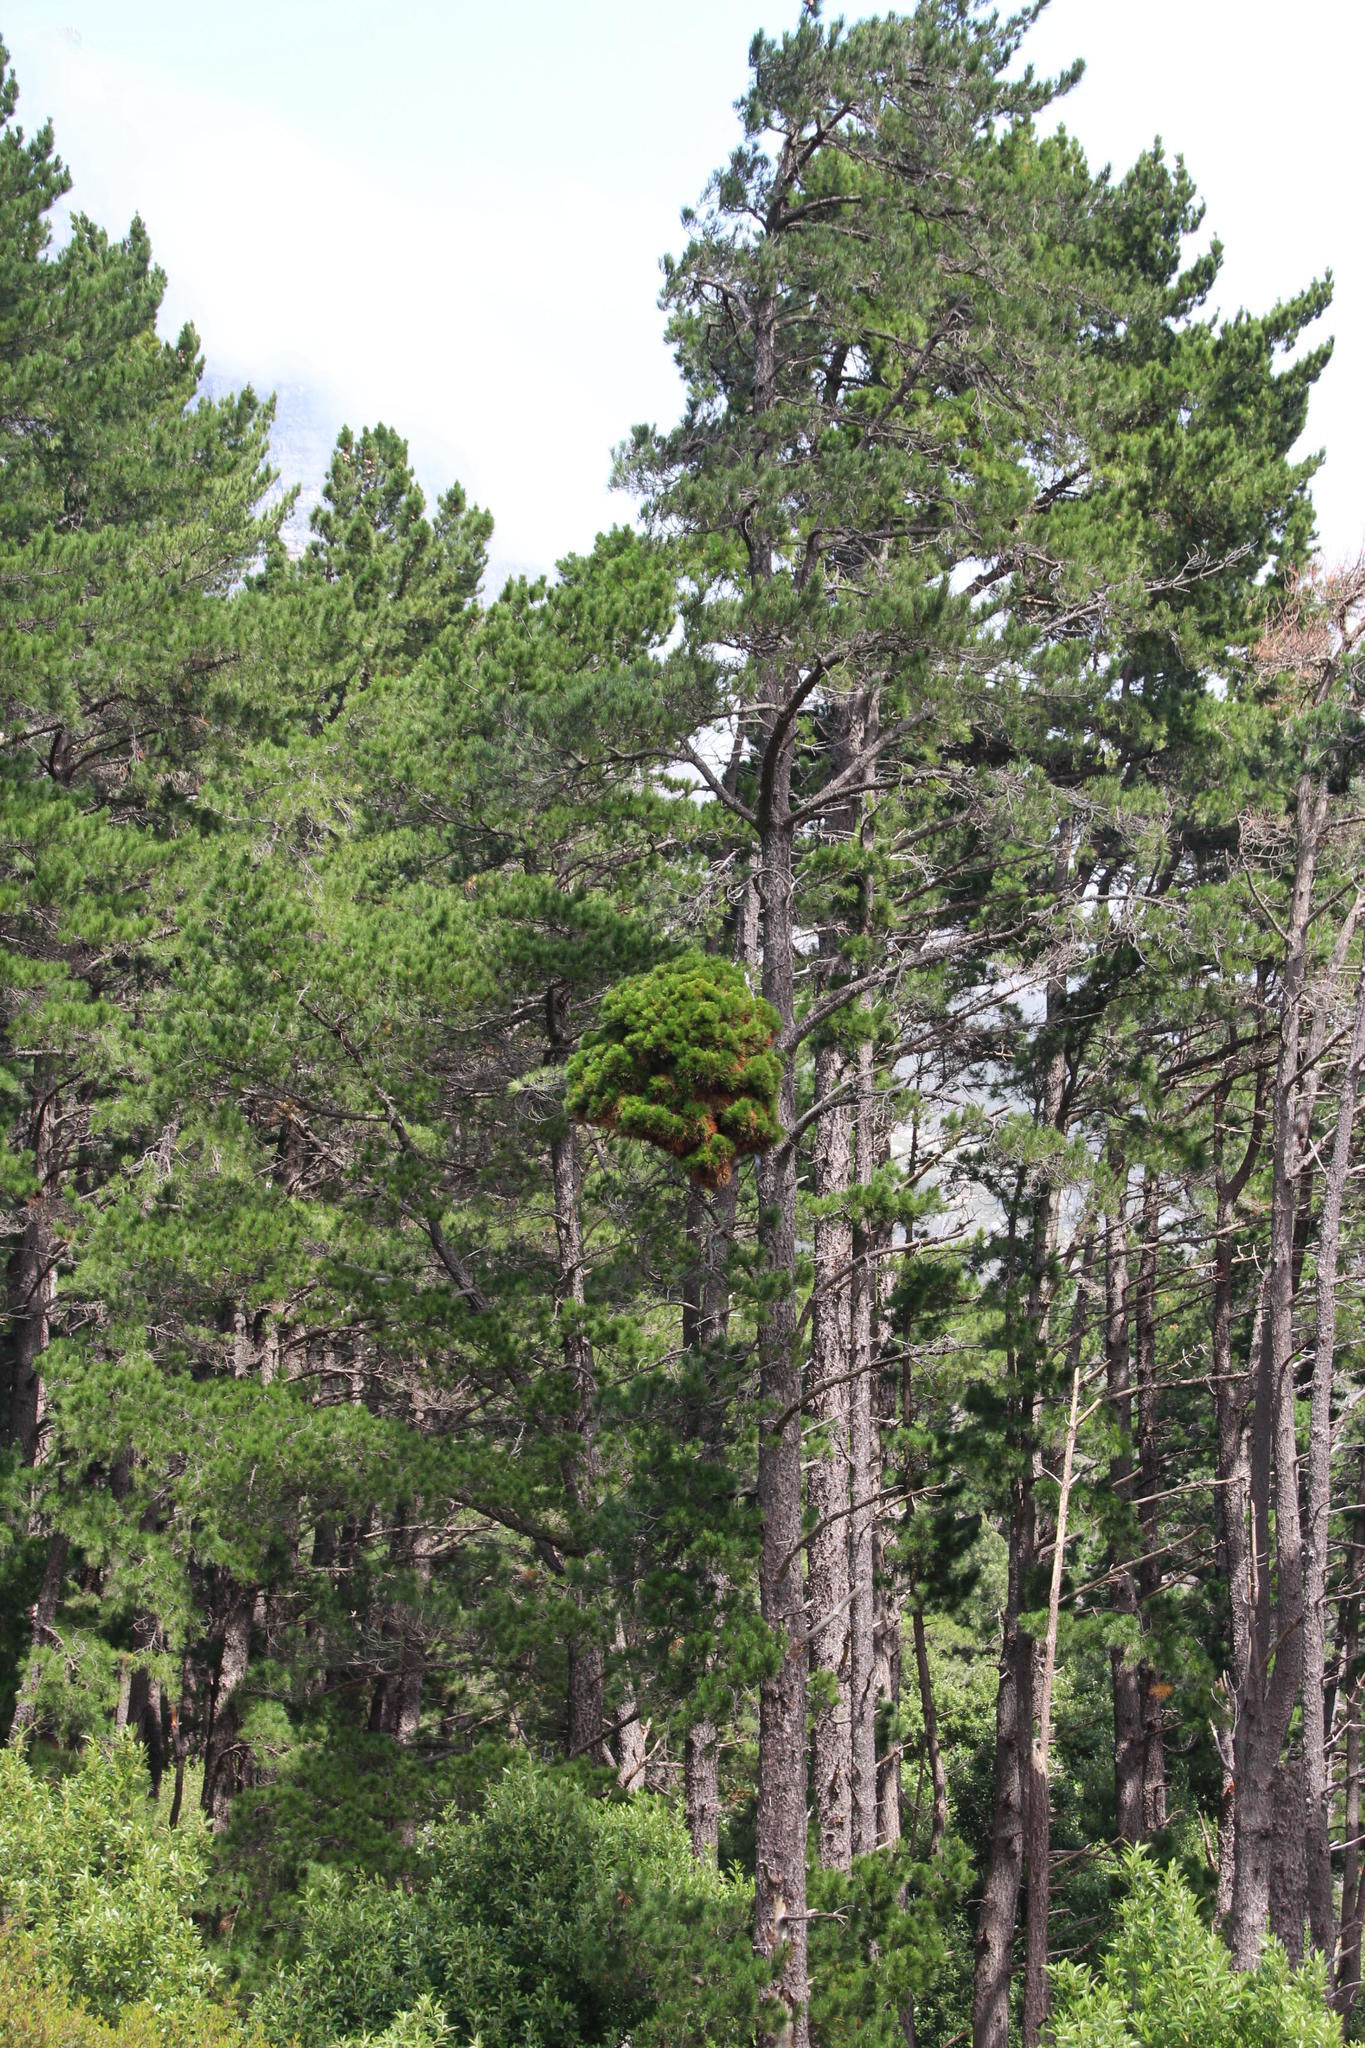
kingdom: Bacteria
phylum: Firmicutes
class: Bacilli
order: Acholeplasmatales
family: Acholeplasmataceae
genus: Phytoplasma
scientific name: Phytoplasma pini
